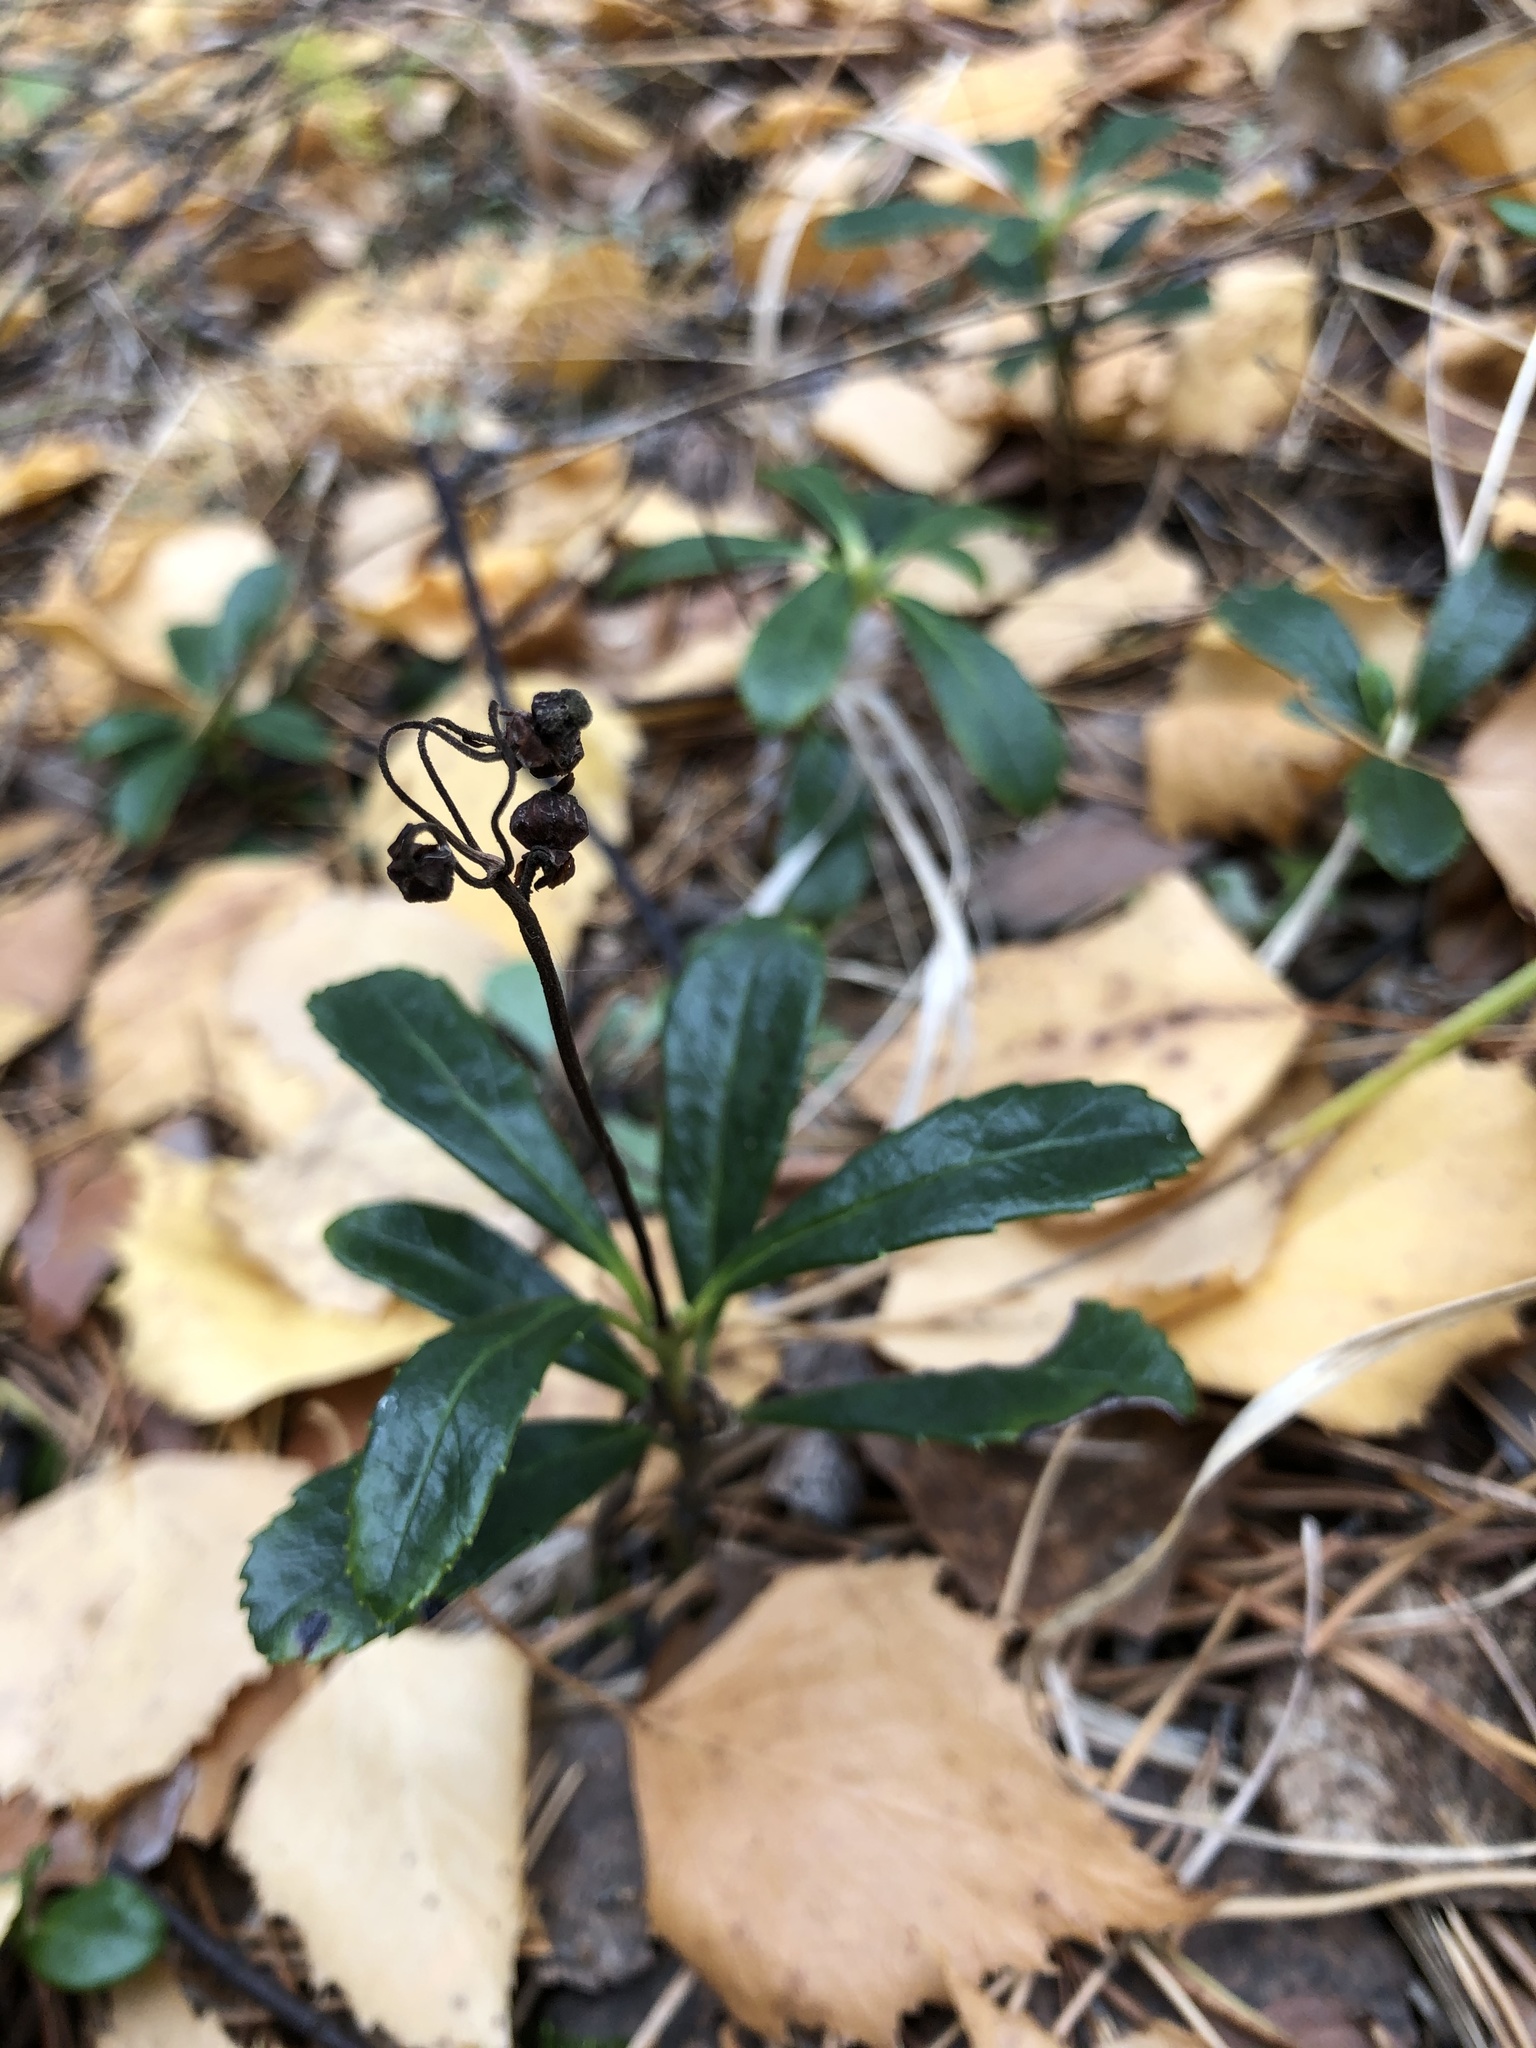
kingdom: Plantae
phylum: Tracheophyta
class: Magnoliopsida
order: Ericales
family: Ericaceae
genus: Chimaphila
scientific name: Chimaphila umbellata
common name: Pipsissewa
